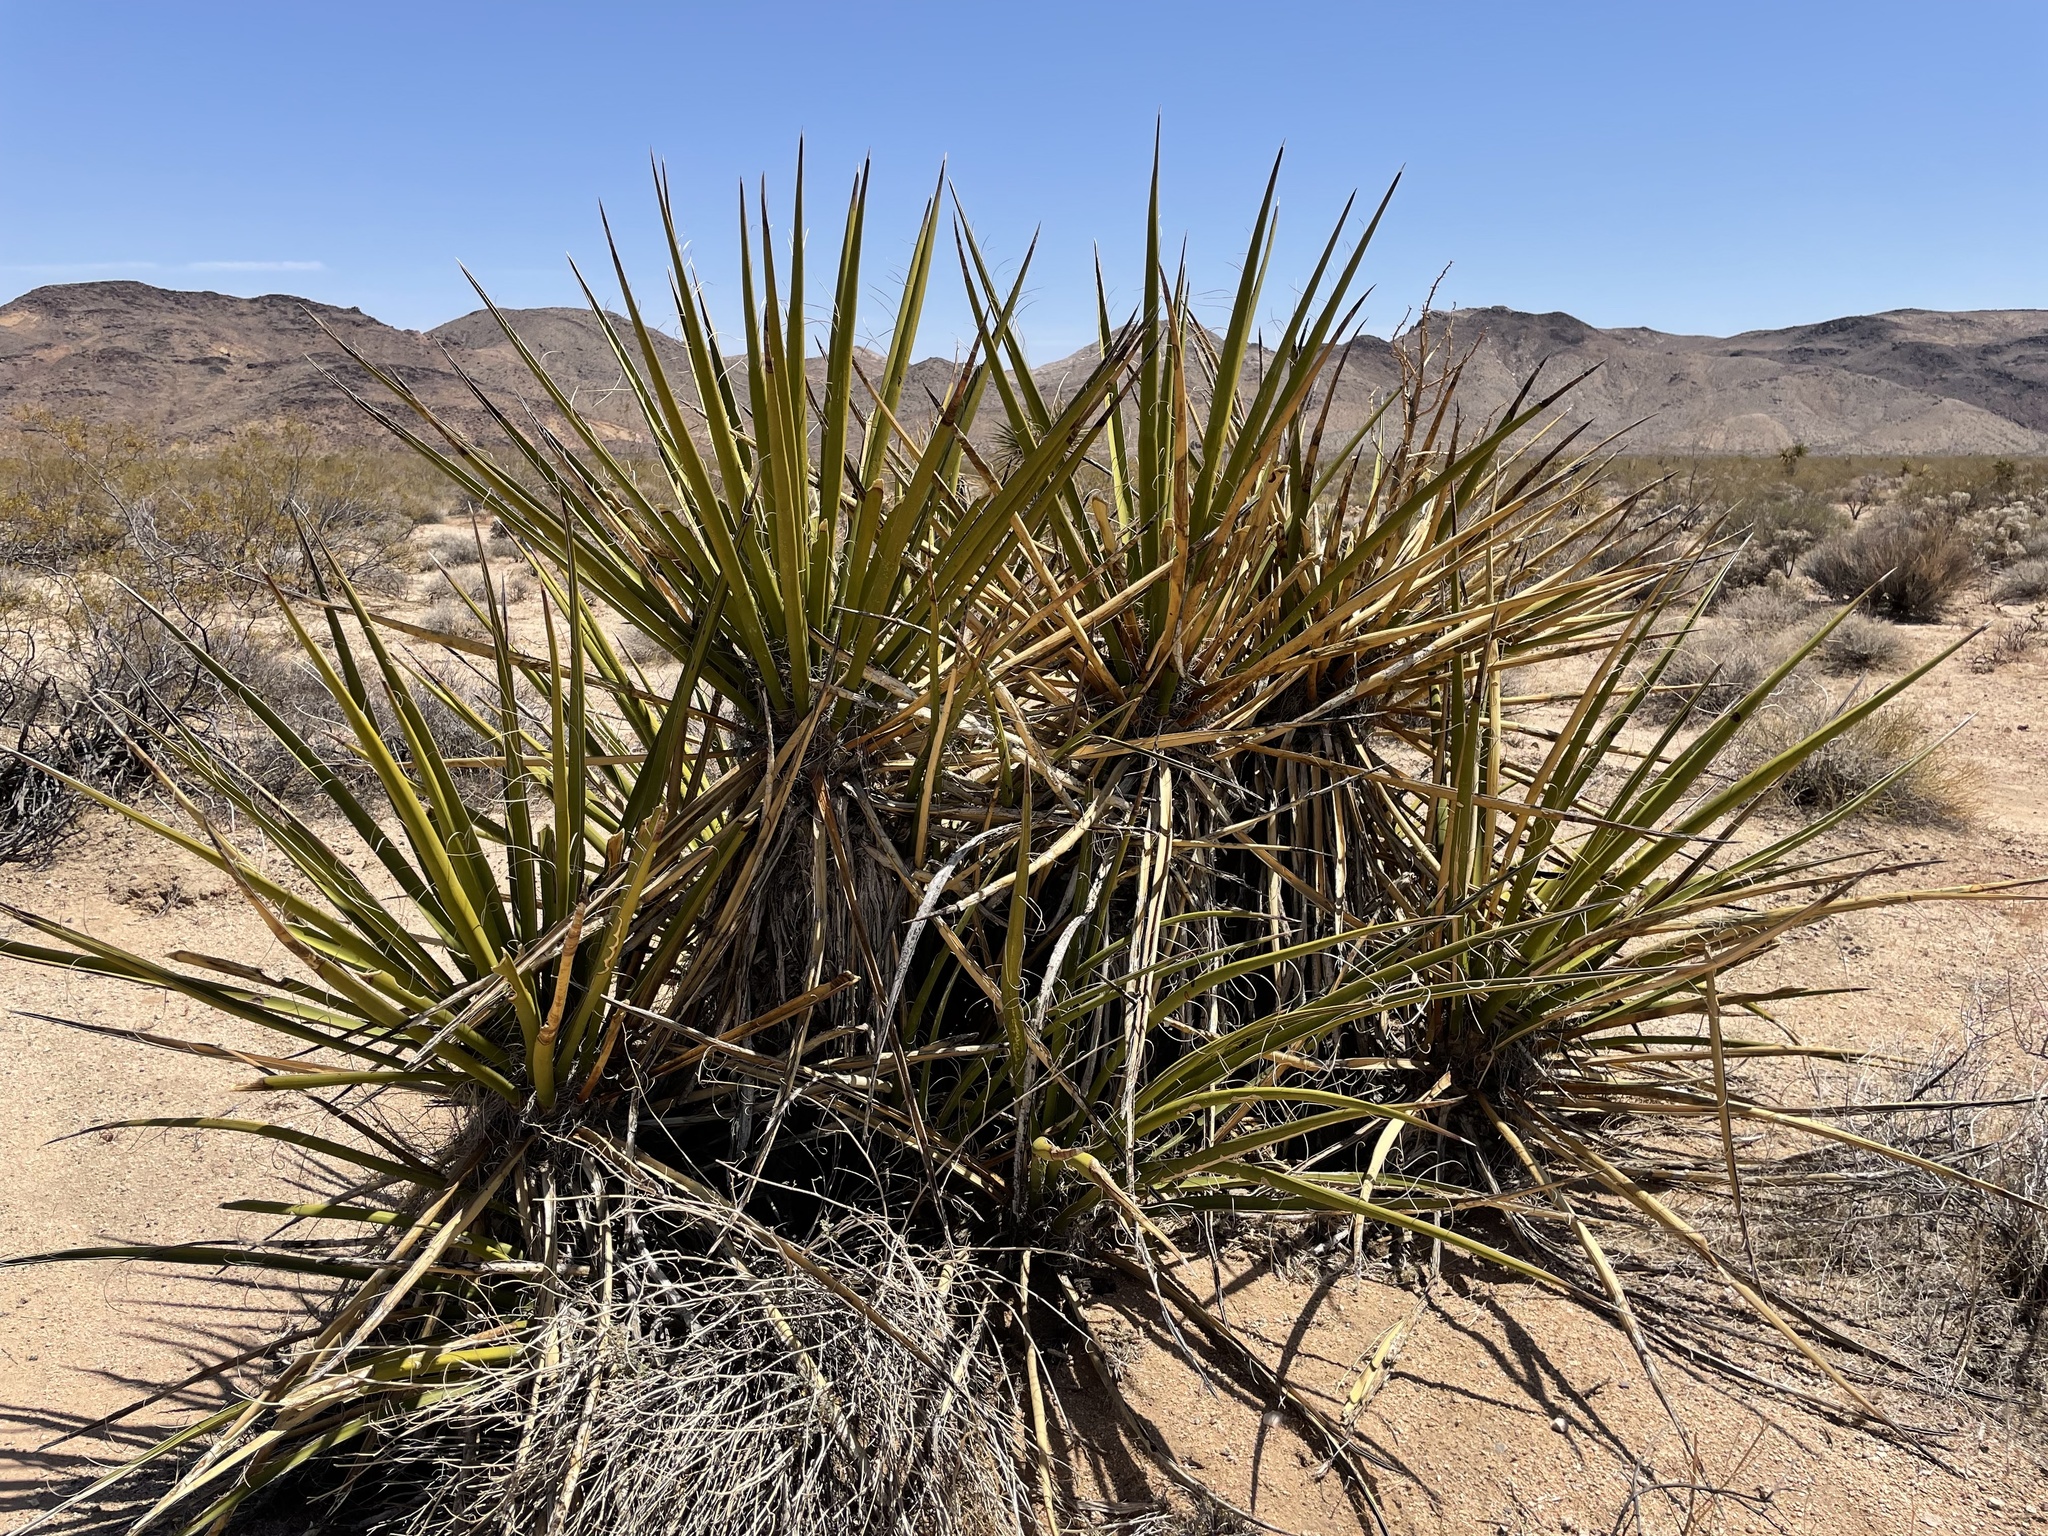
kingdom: Plantae
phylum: Tracheophyta
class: Liliopsida
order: Asparagales
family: Asparagaceae
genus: Yucca
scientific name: Yucca schidigera
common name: Mojave yucca
